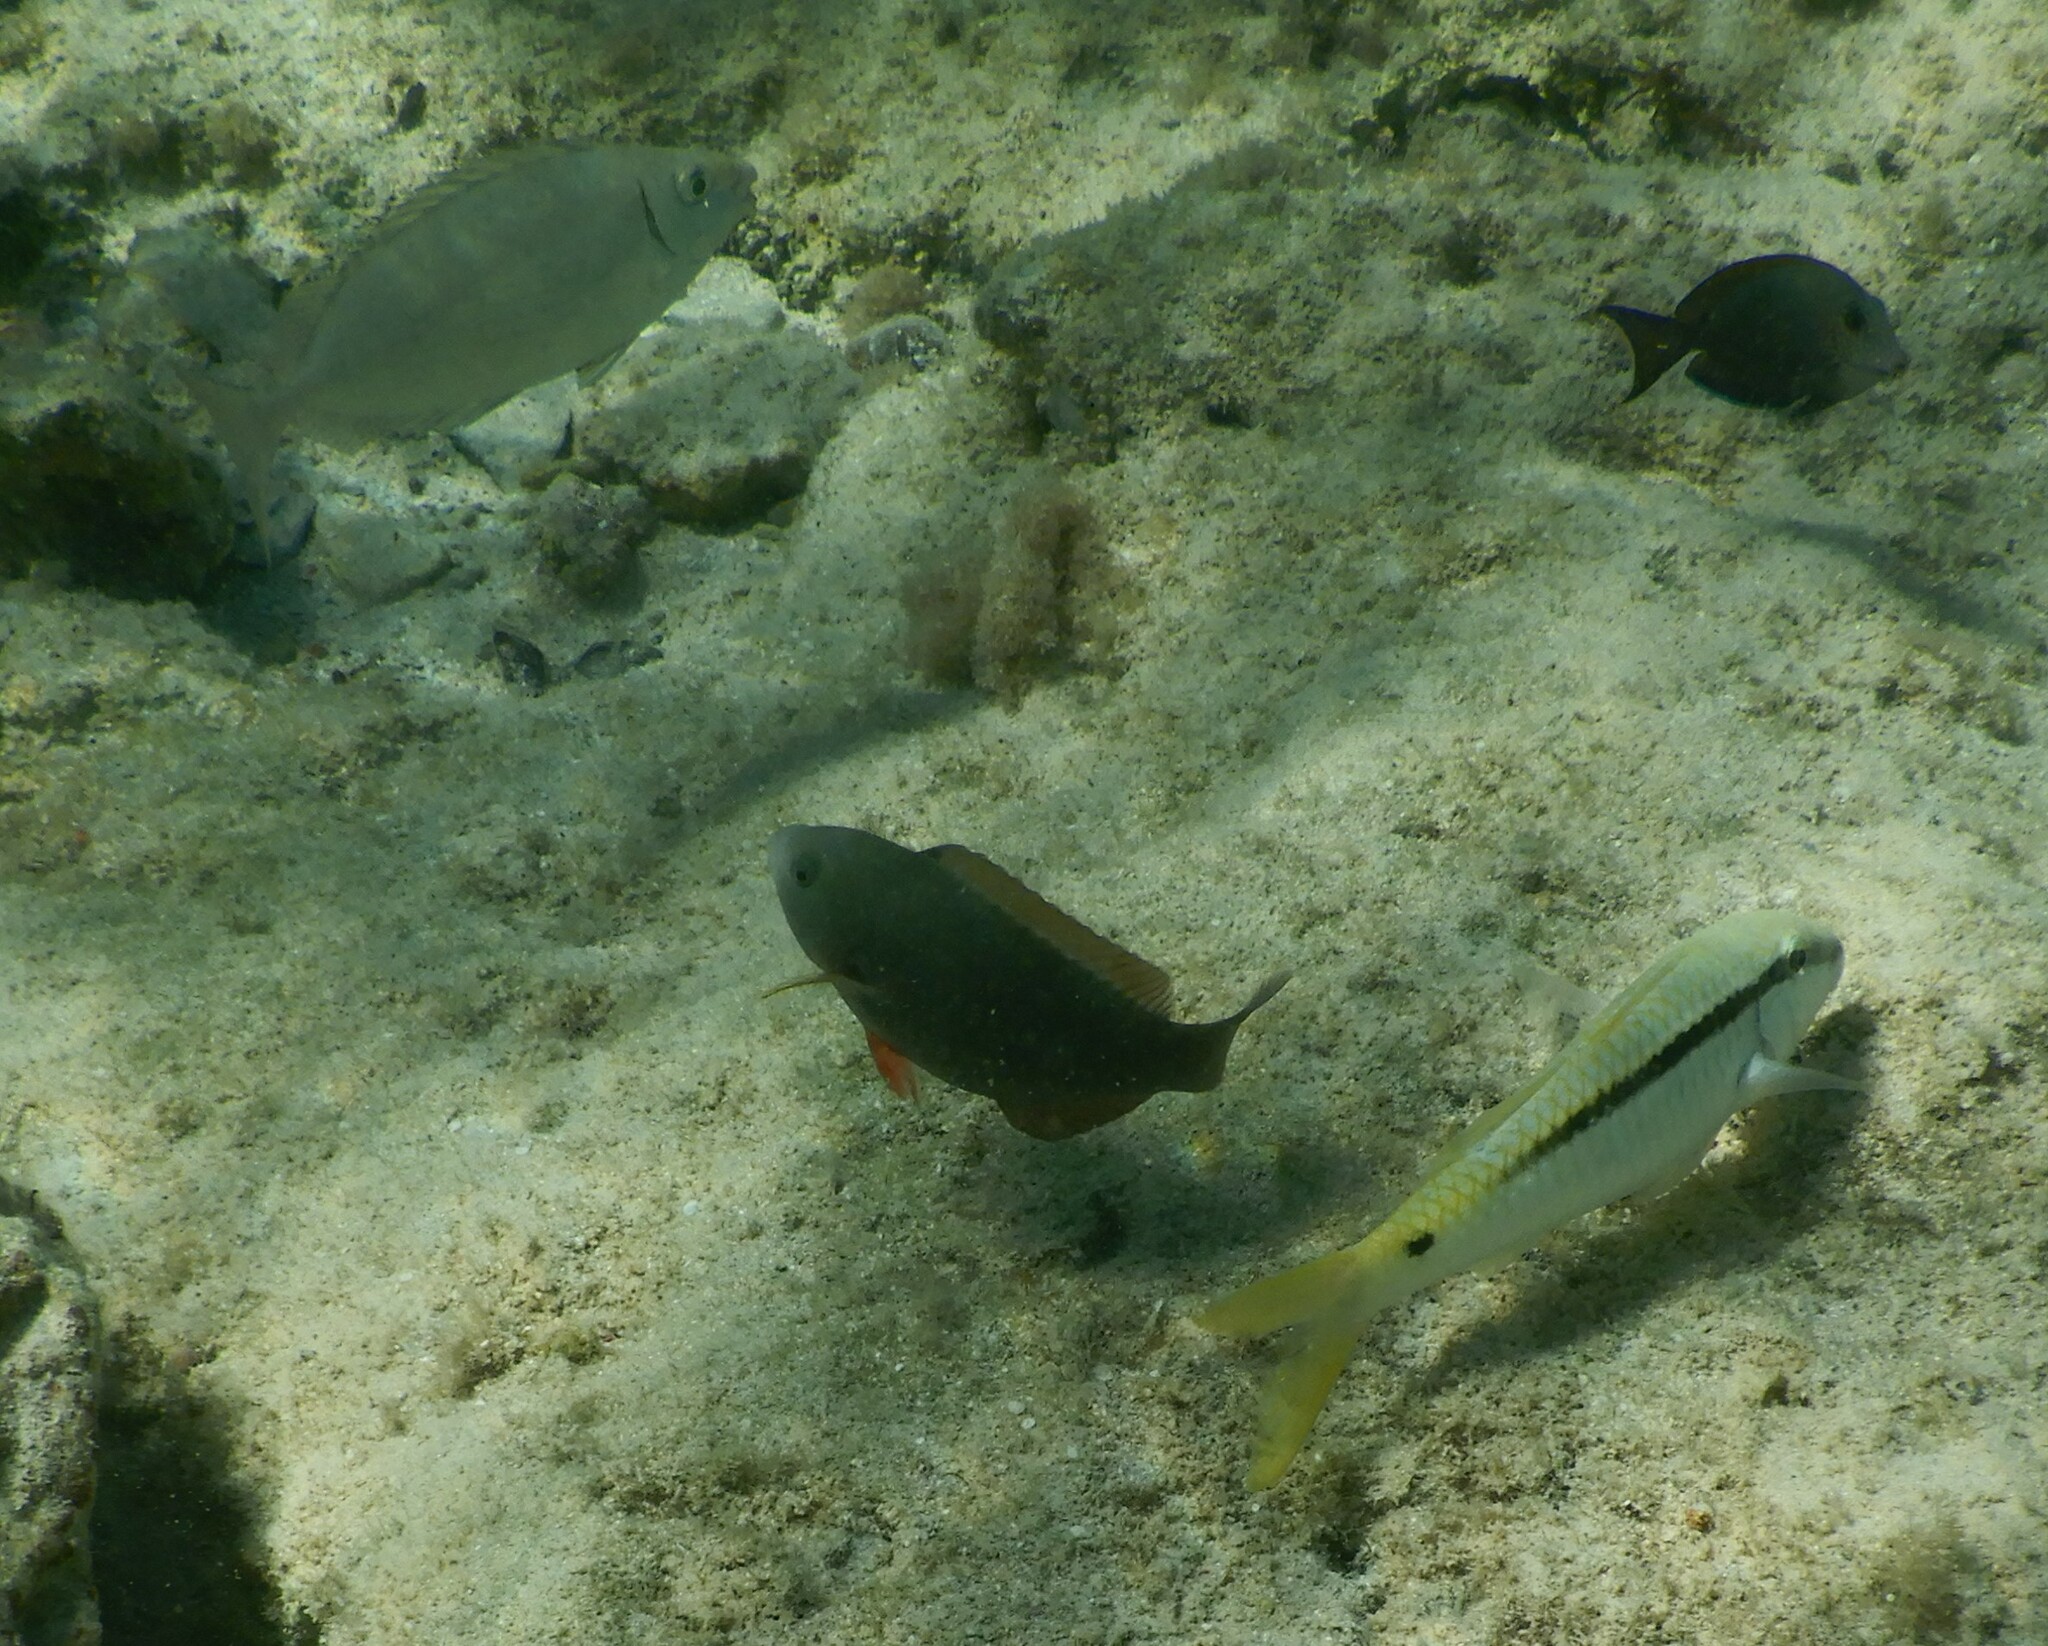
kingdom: Animalia
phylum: Chordata
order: Perciformes
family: Siganidae
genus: Siganus
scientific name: Siganus rivulatus
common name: Marbled spinefoot
